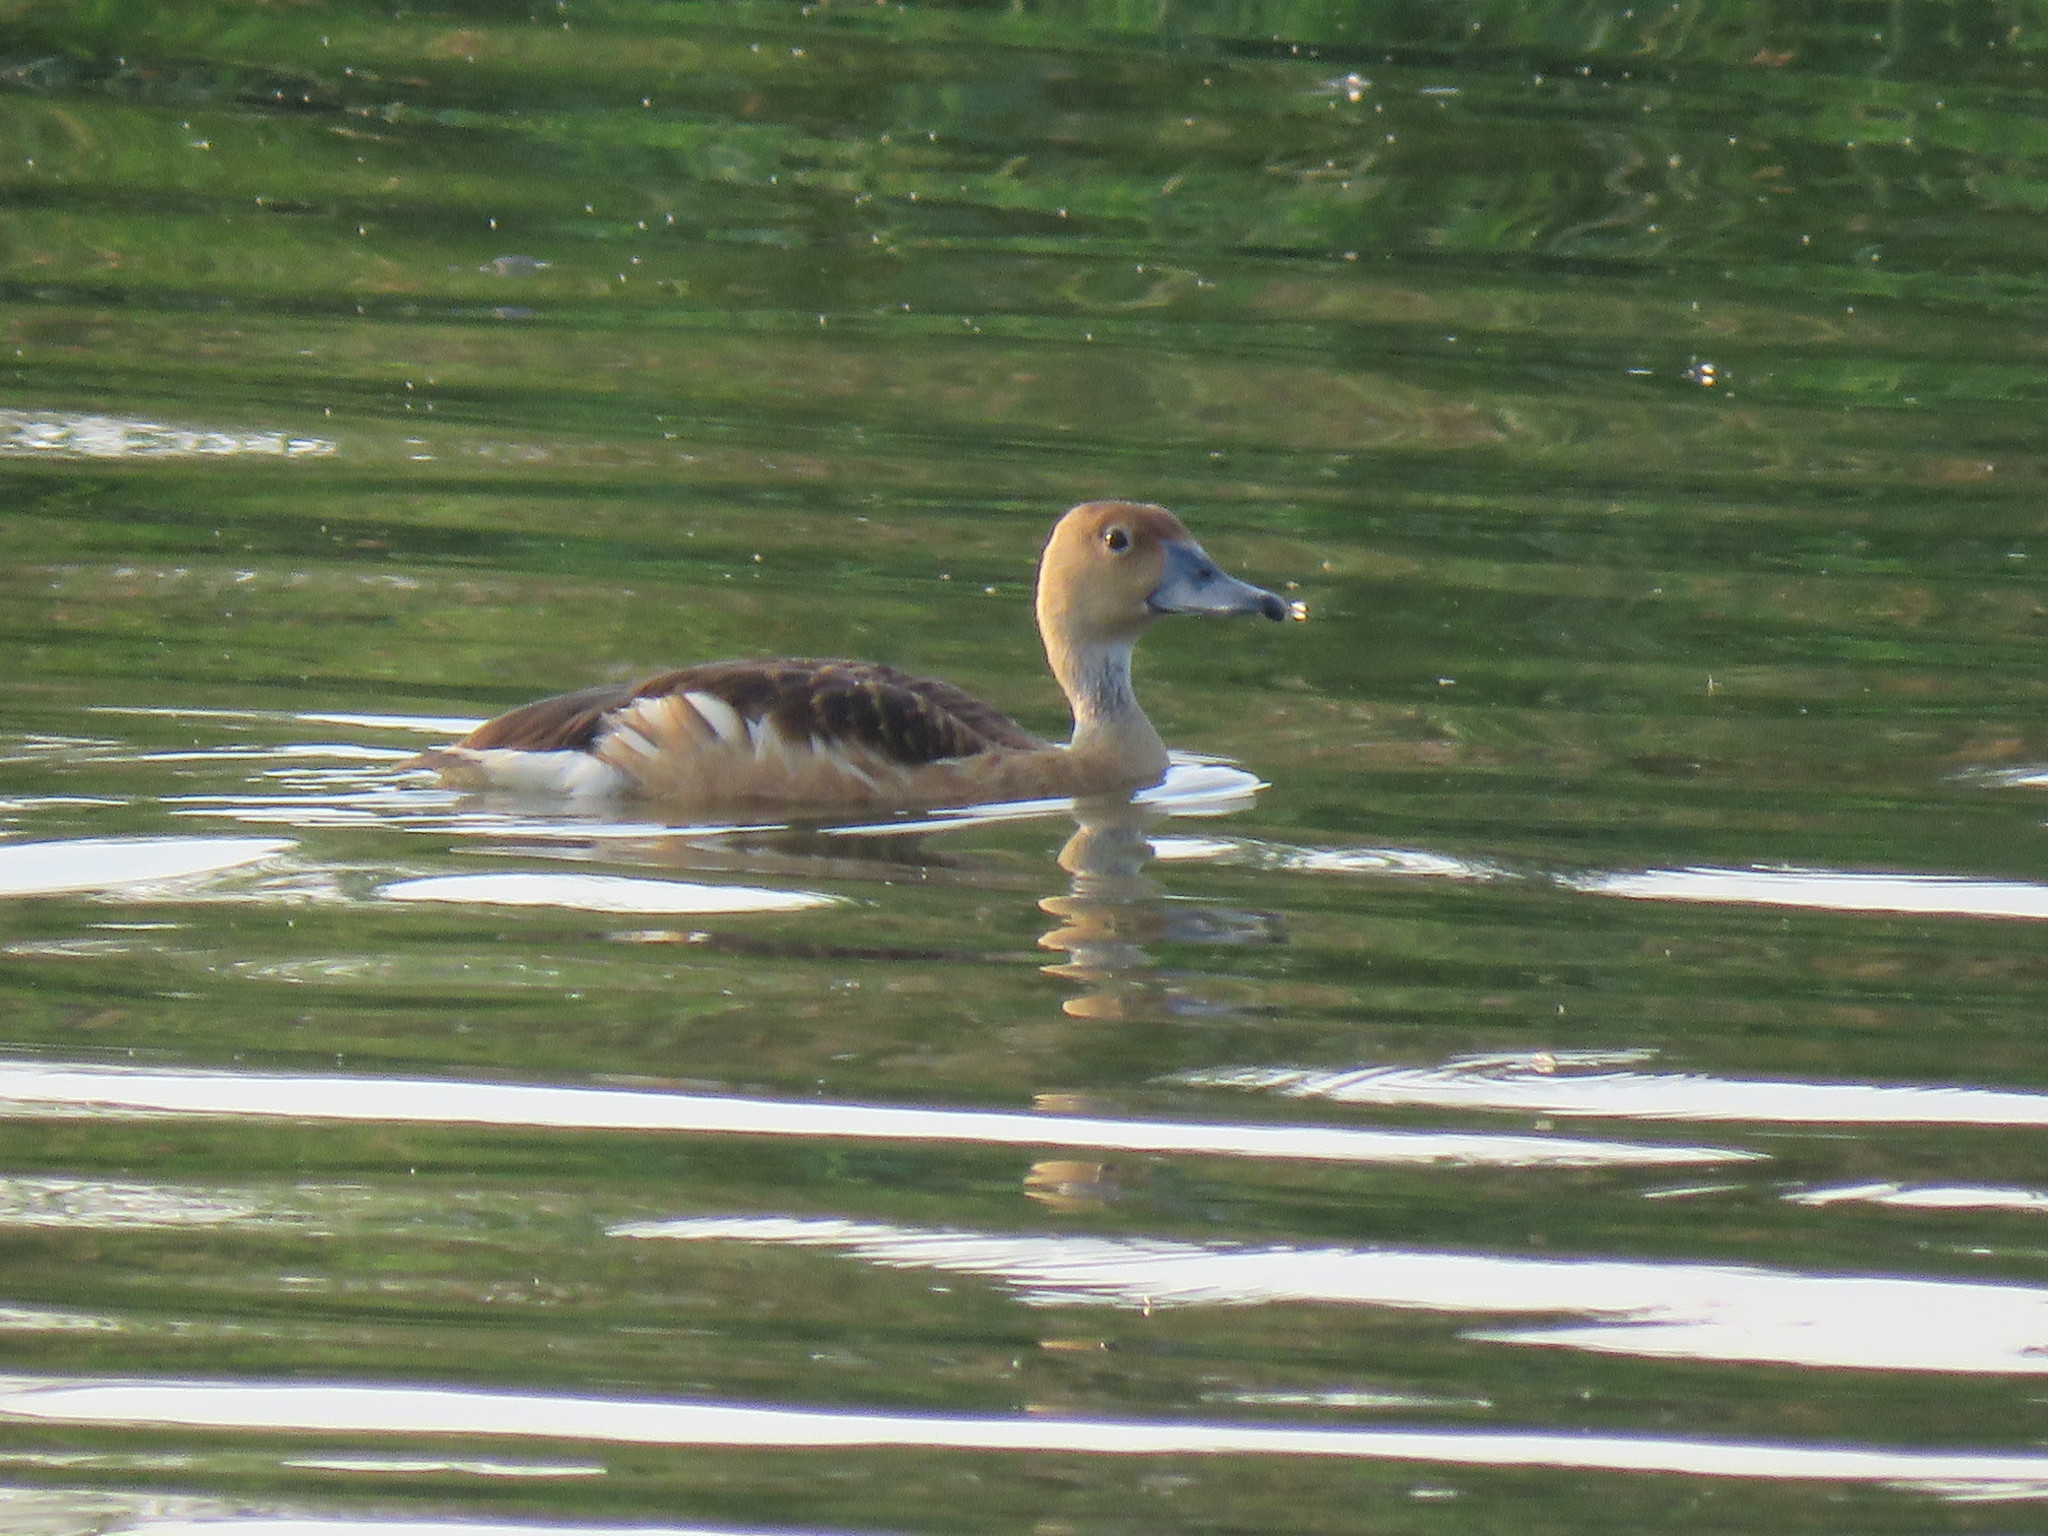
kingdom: Animalia
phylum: Chordata
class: Aves
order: Anseriformes
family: Anatidae
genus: Dendrocygna
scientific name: Dendrocygna javanica
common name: Lesser whistling-duck
